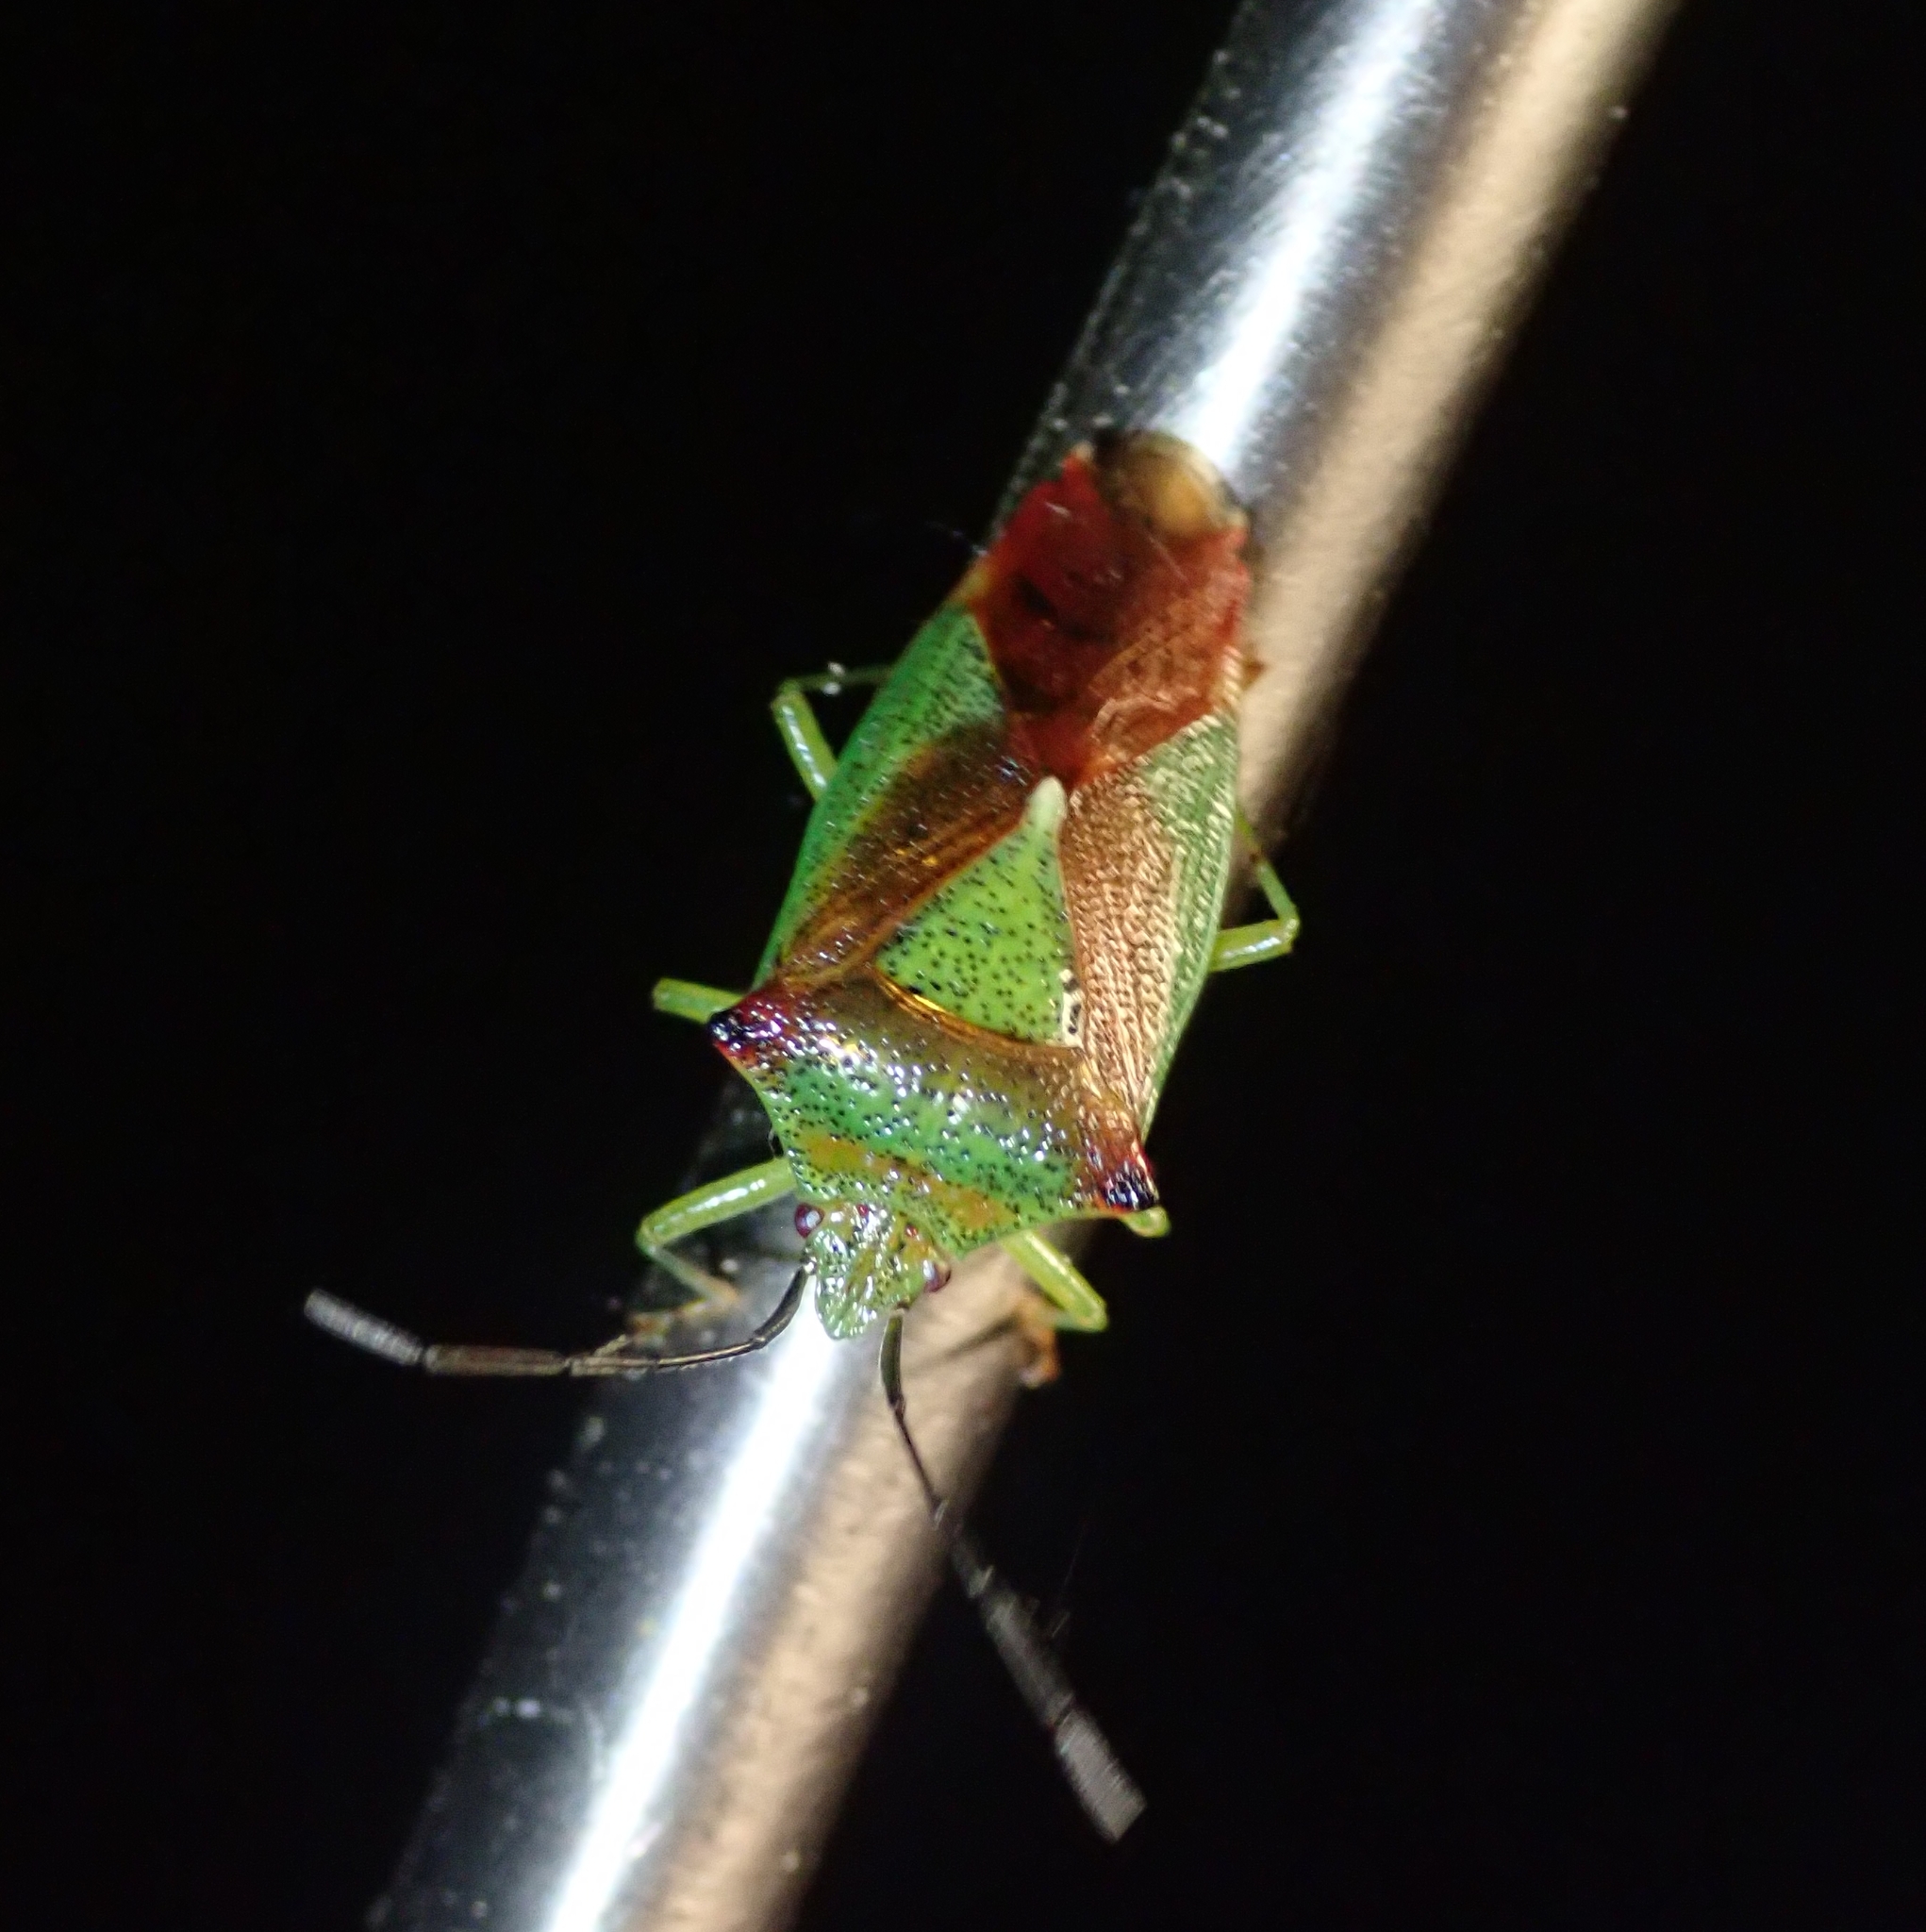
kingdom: Animalia
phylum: Arthropoda
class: Insecta
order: Hemiptera
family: Acanthosomatidae
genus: Acanthosoma
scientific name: Acanthosoma haemorrhoidale
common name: Hawthorn shieldbug
